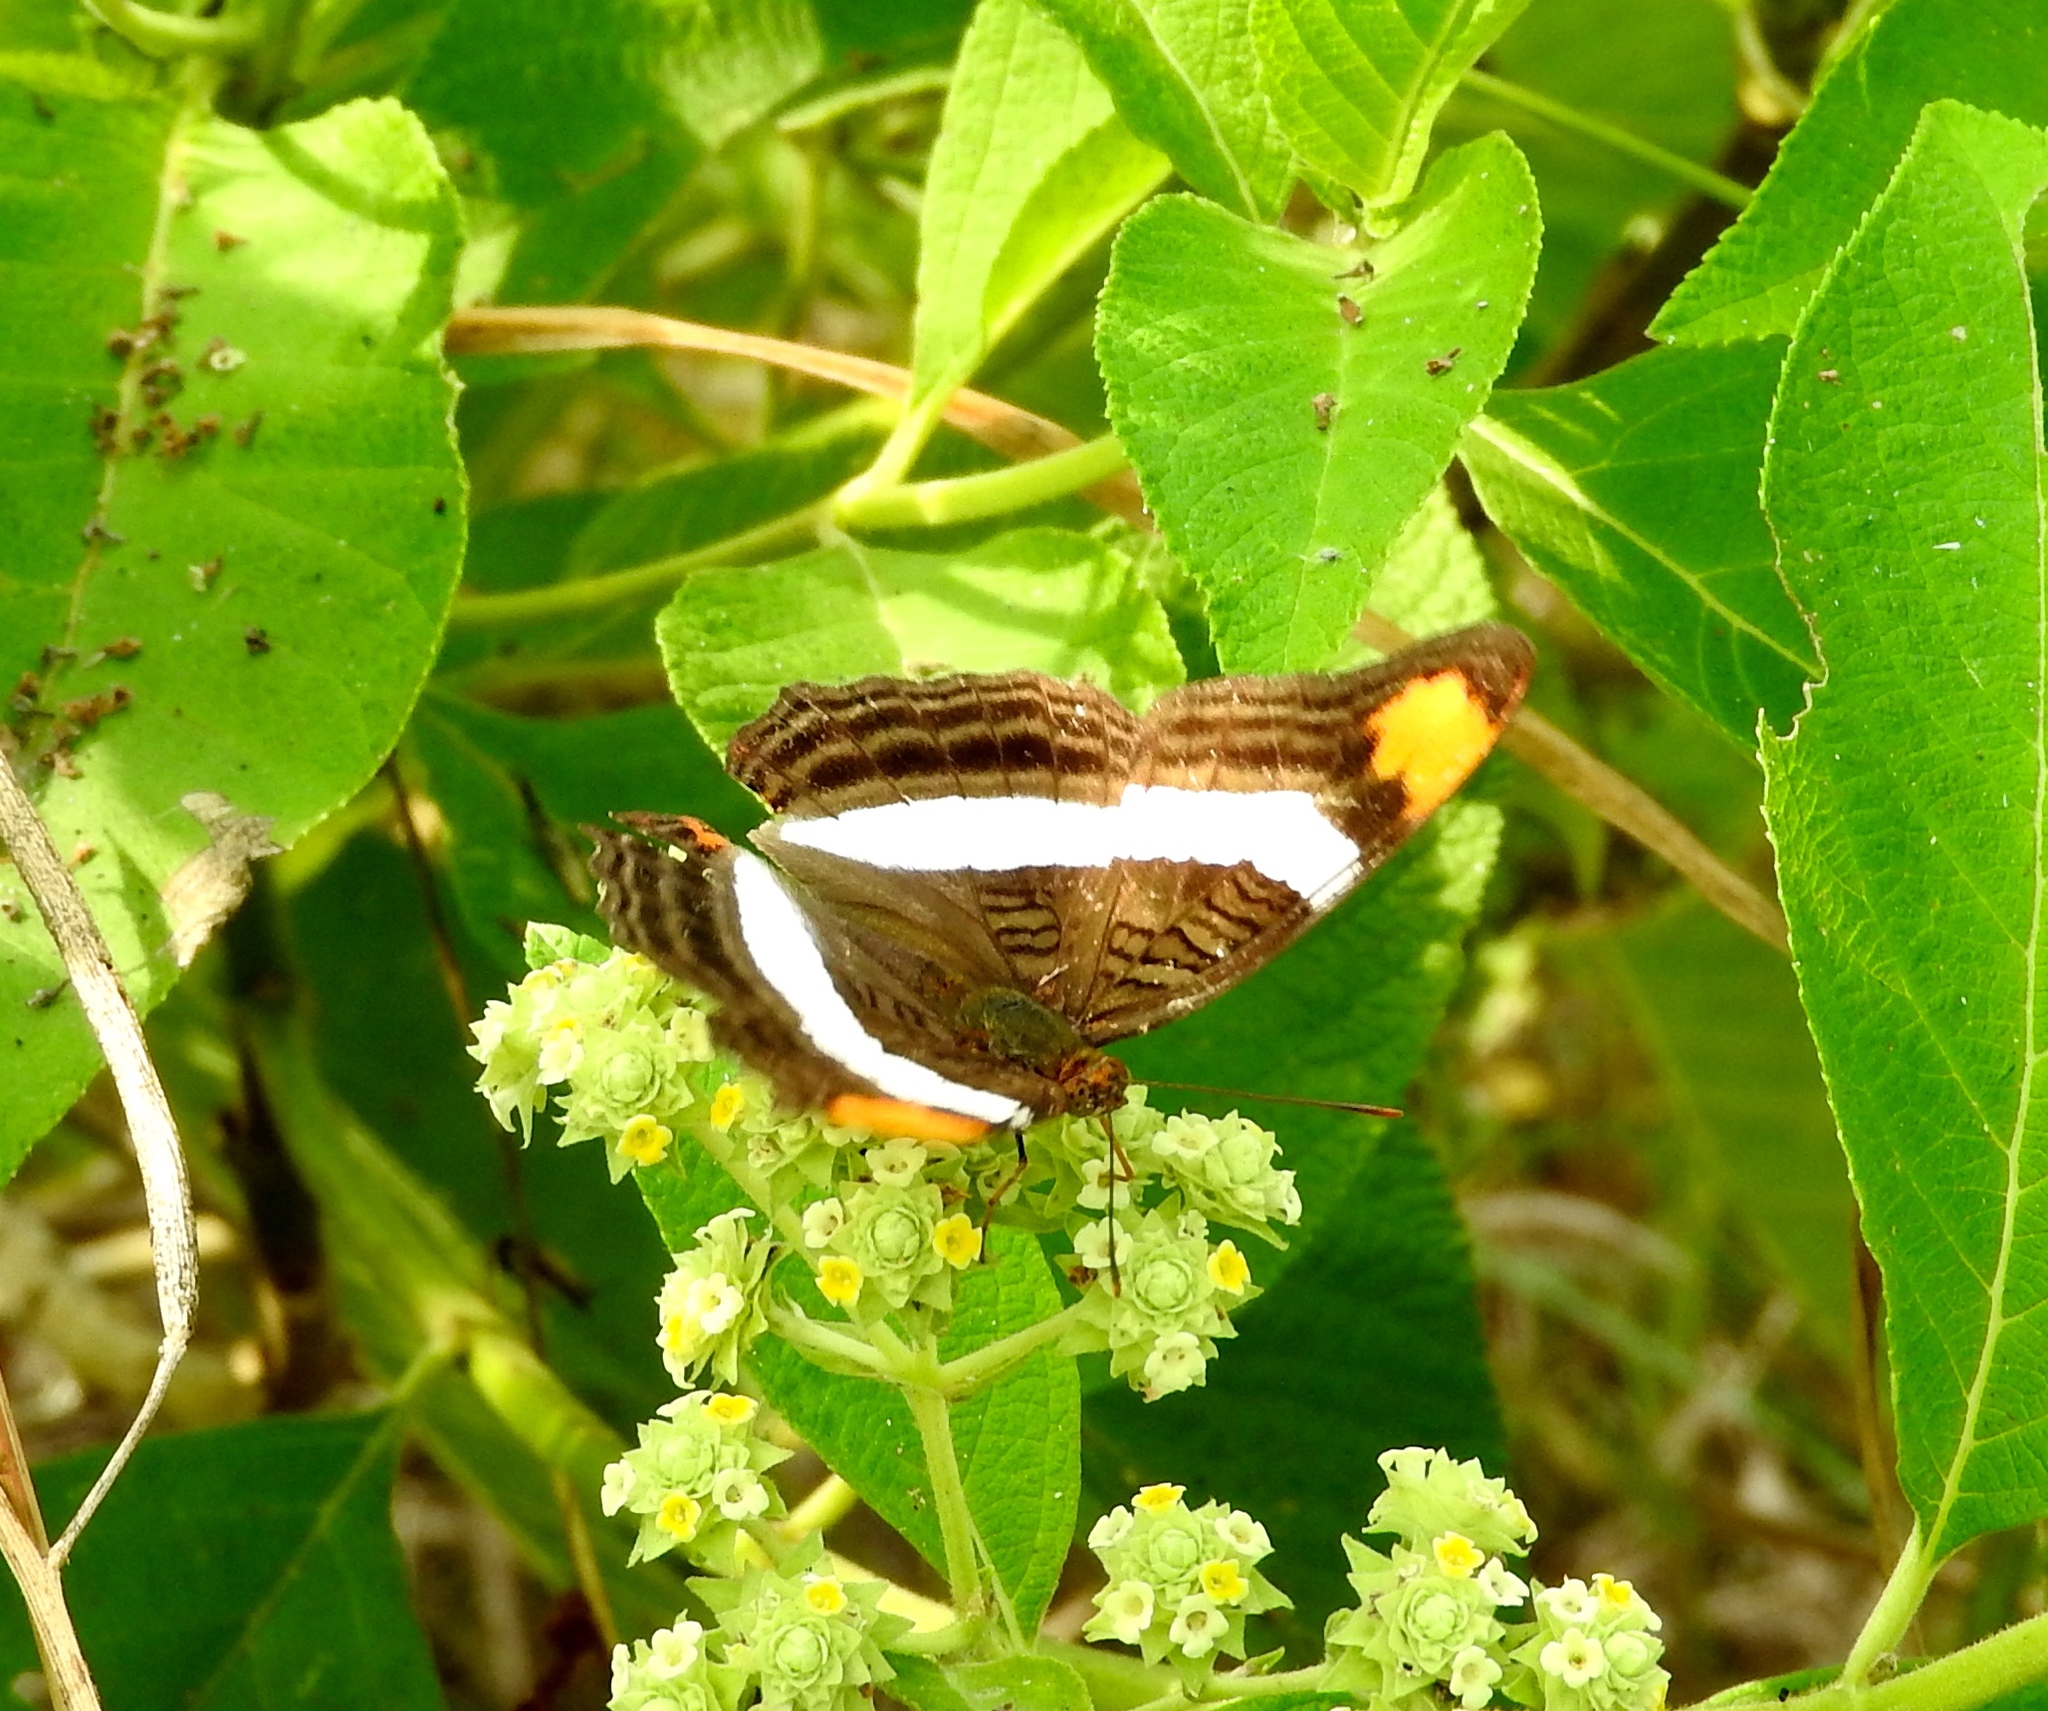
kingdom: Animalia
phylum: Arthropoda
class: Insecta
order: Lepidoptera
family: Nymphalidae
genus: Limenitis
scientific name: Limenitis fessonia
